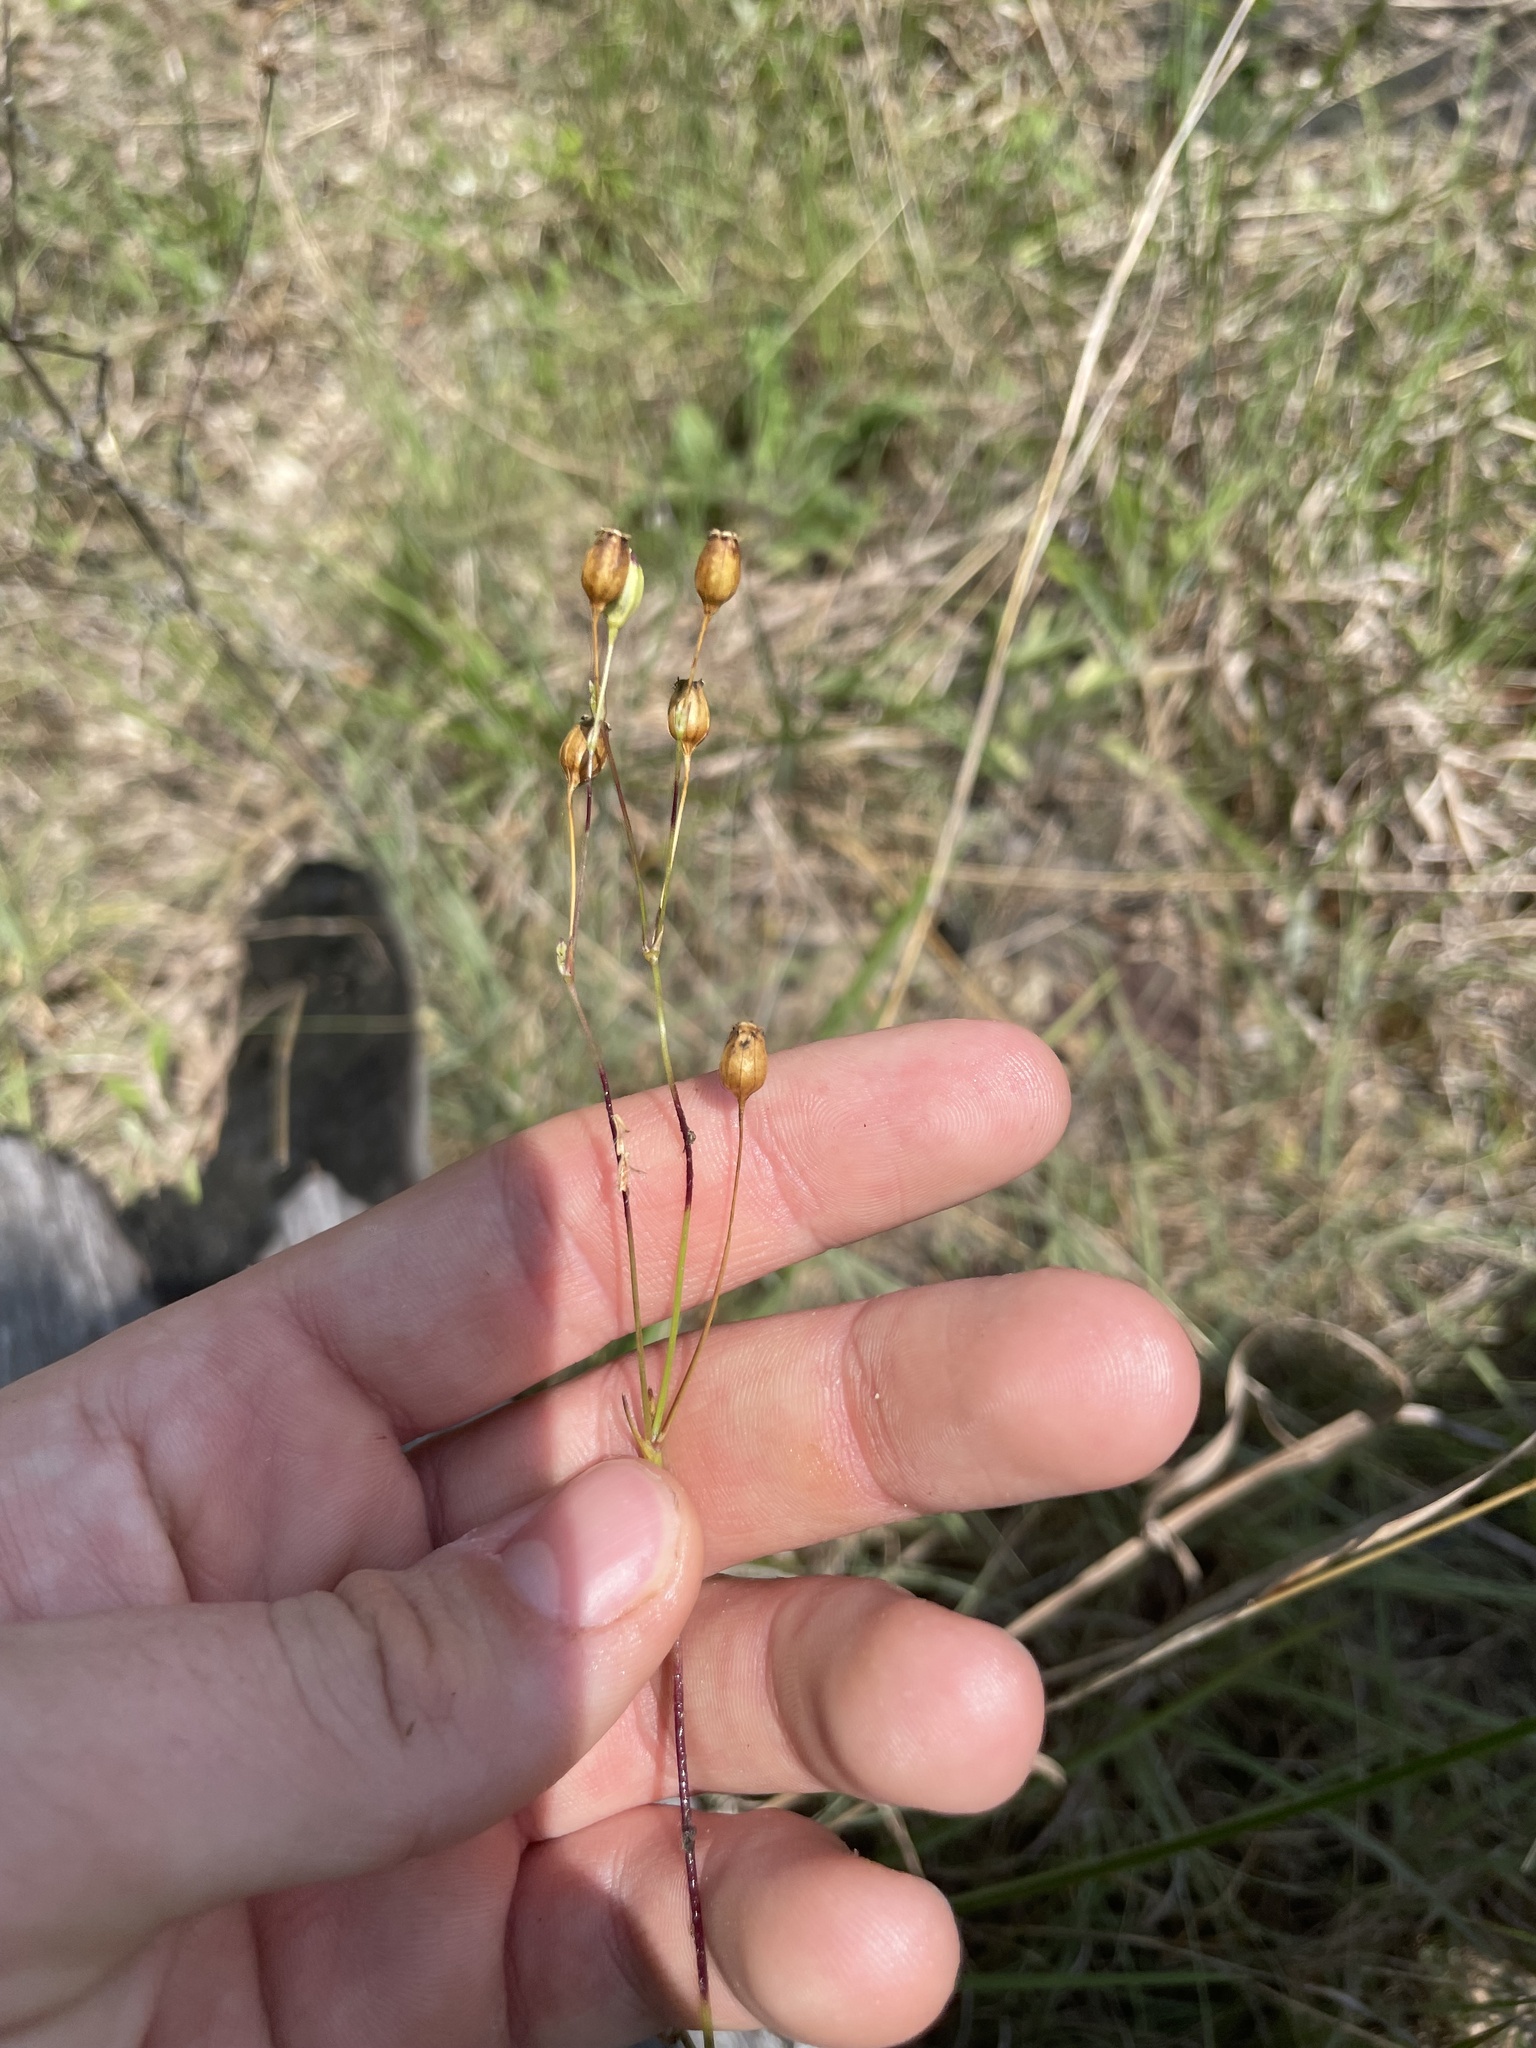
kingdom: Plantae
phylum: Tracheophyta
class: Magnoliopsida
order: Caryophyllales
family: Caryophyllaceae
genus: Silene
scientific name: Silene antirrhina
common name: Sleepy catchfly
